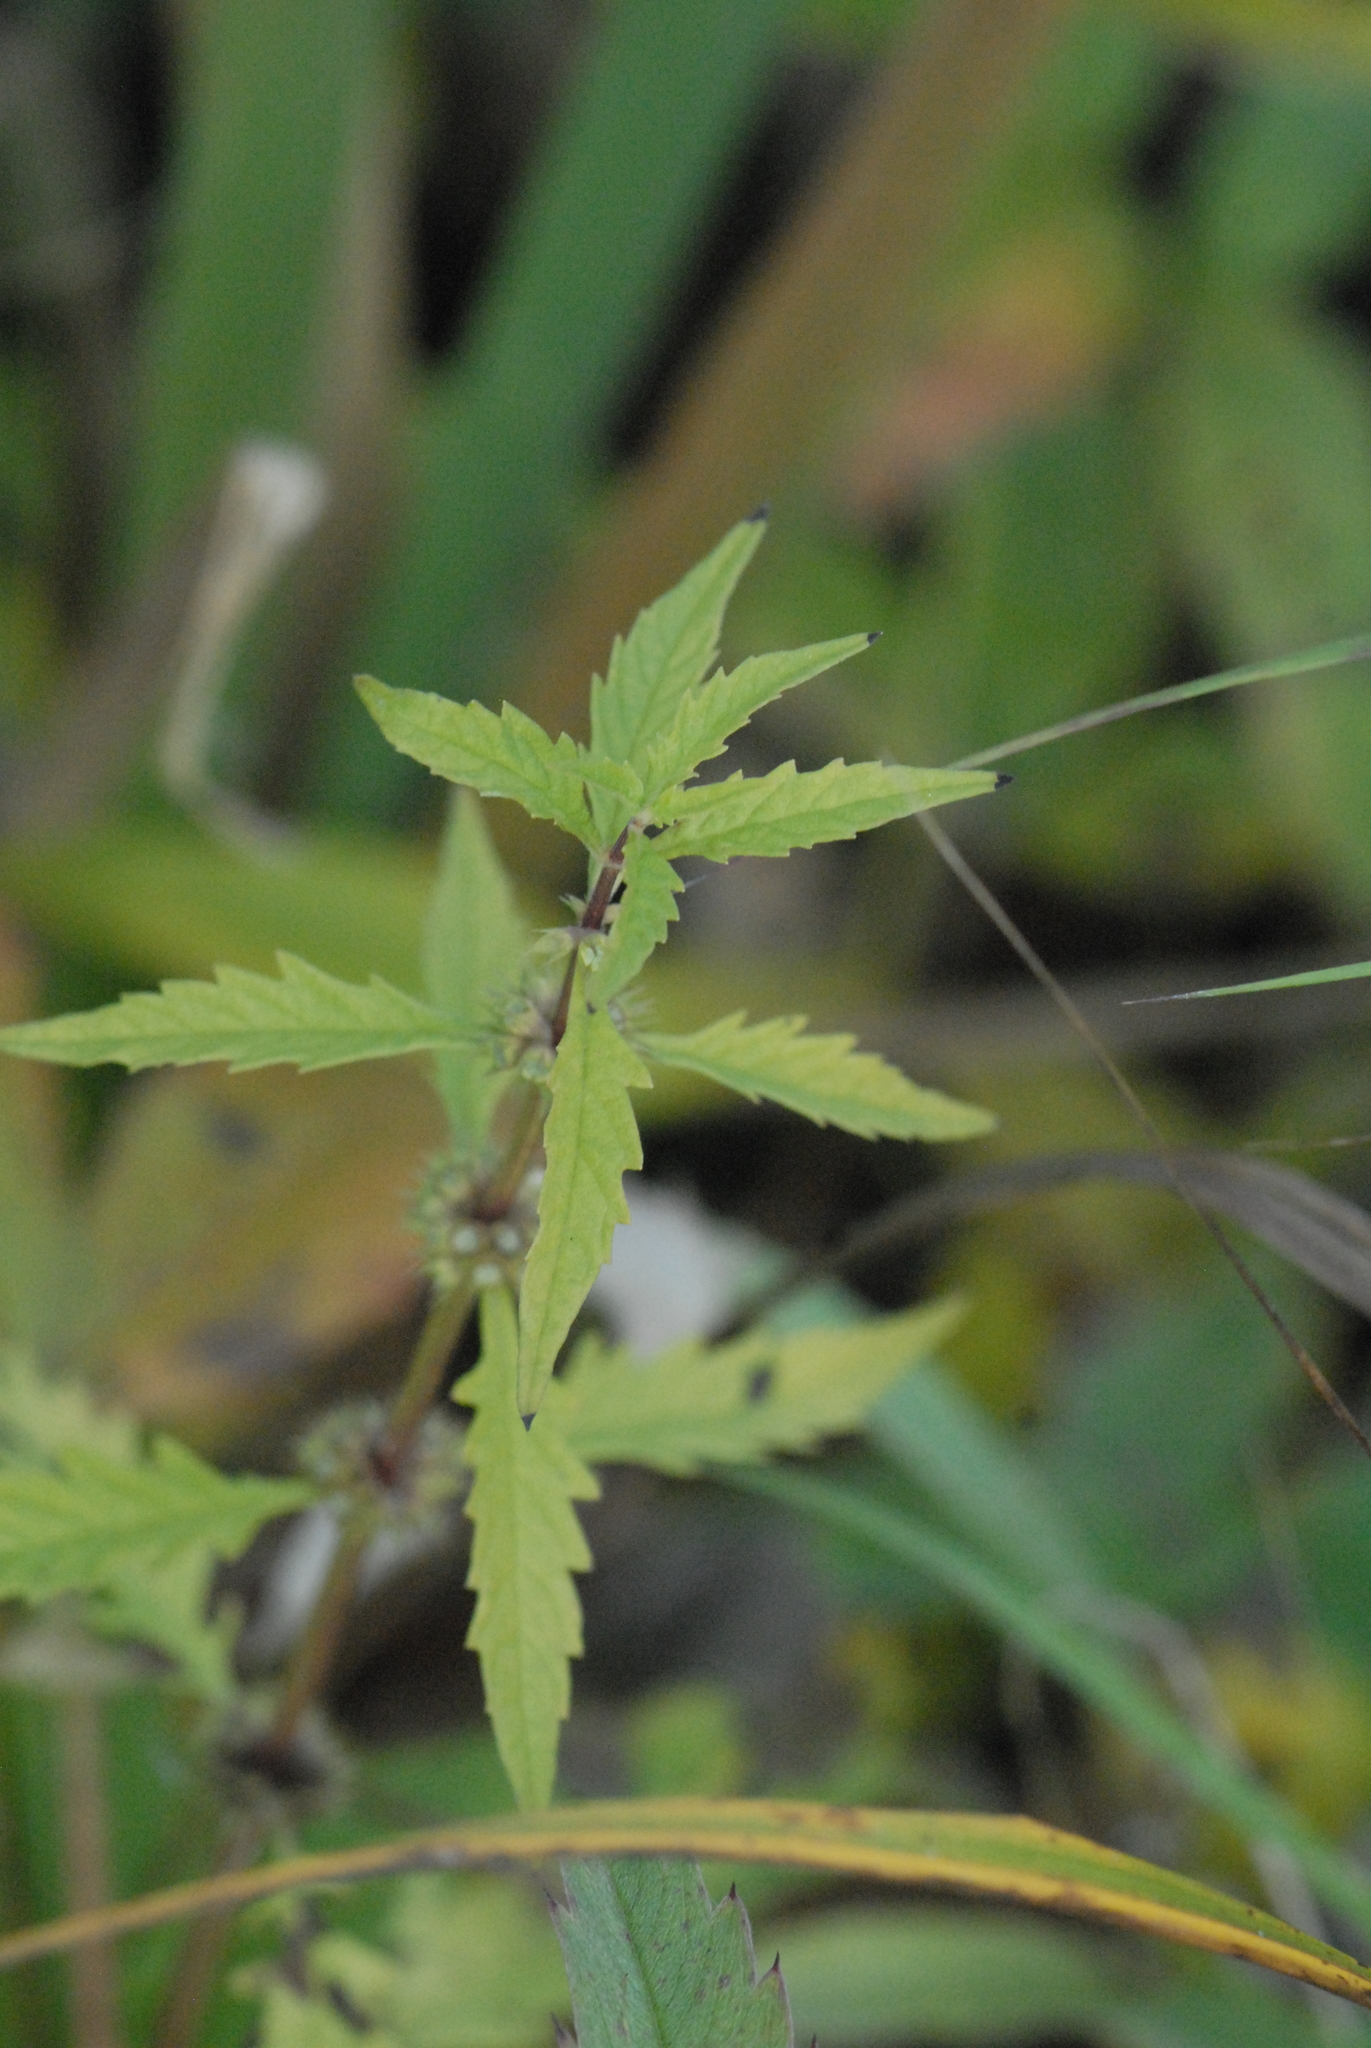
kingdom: Plantae
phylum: Tracheophyta
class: Magnoliopsida
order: Lamiales
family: Lamiaceae
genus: Lycopus
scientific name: Lycopus europaeus
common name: European bugleweed
